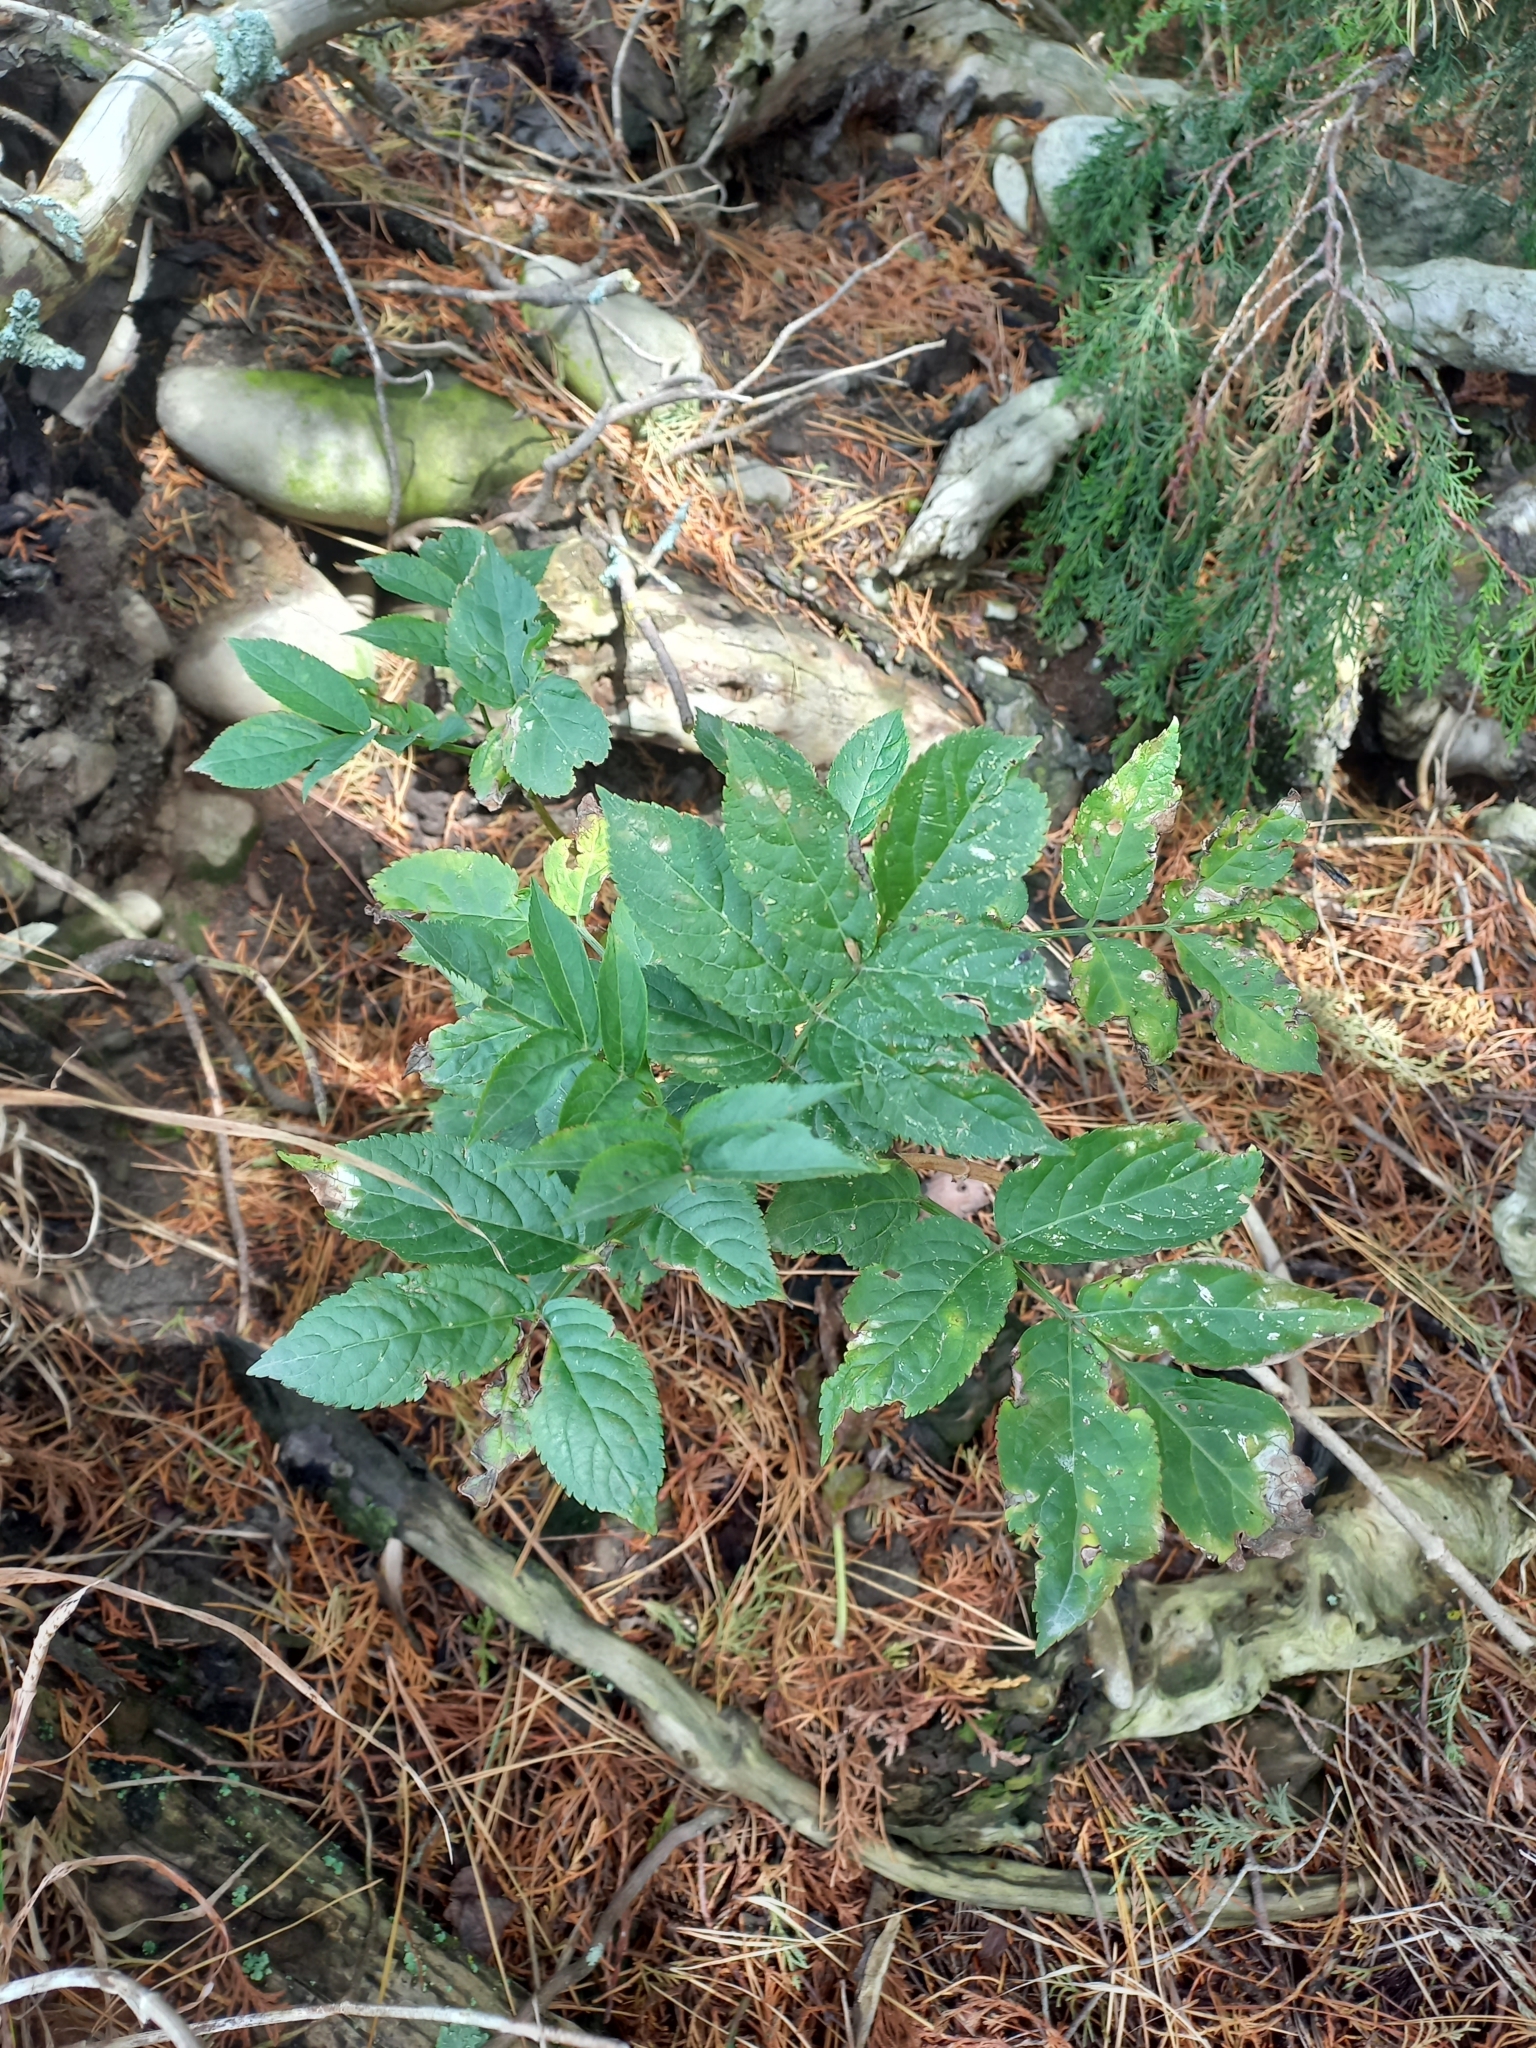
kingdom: Plantae
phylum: Tracheophyta
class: Magnoliopsida
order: Dipsacales
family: Viburnaceae
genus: Sambucus
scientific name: Sambucus nigra
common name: Elder
